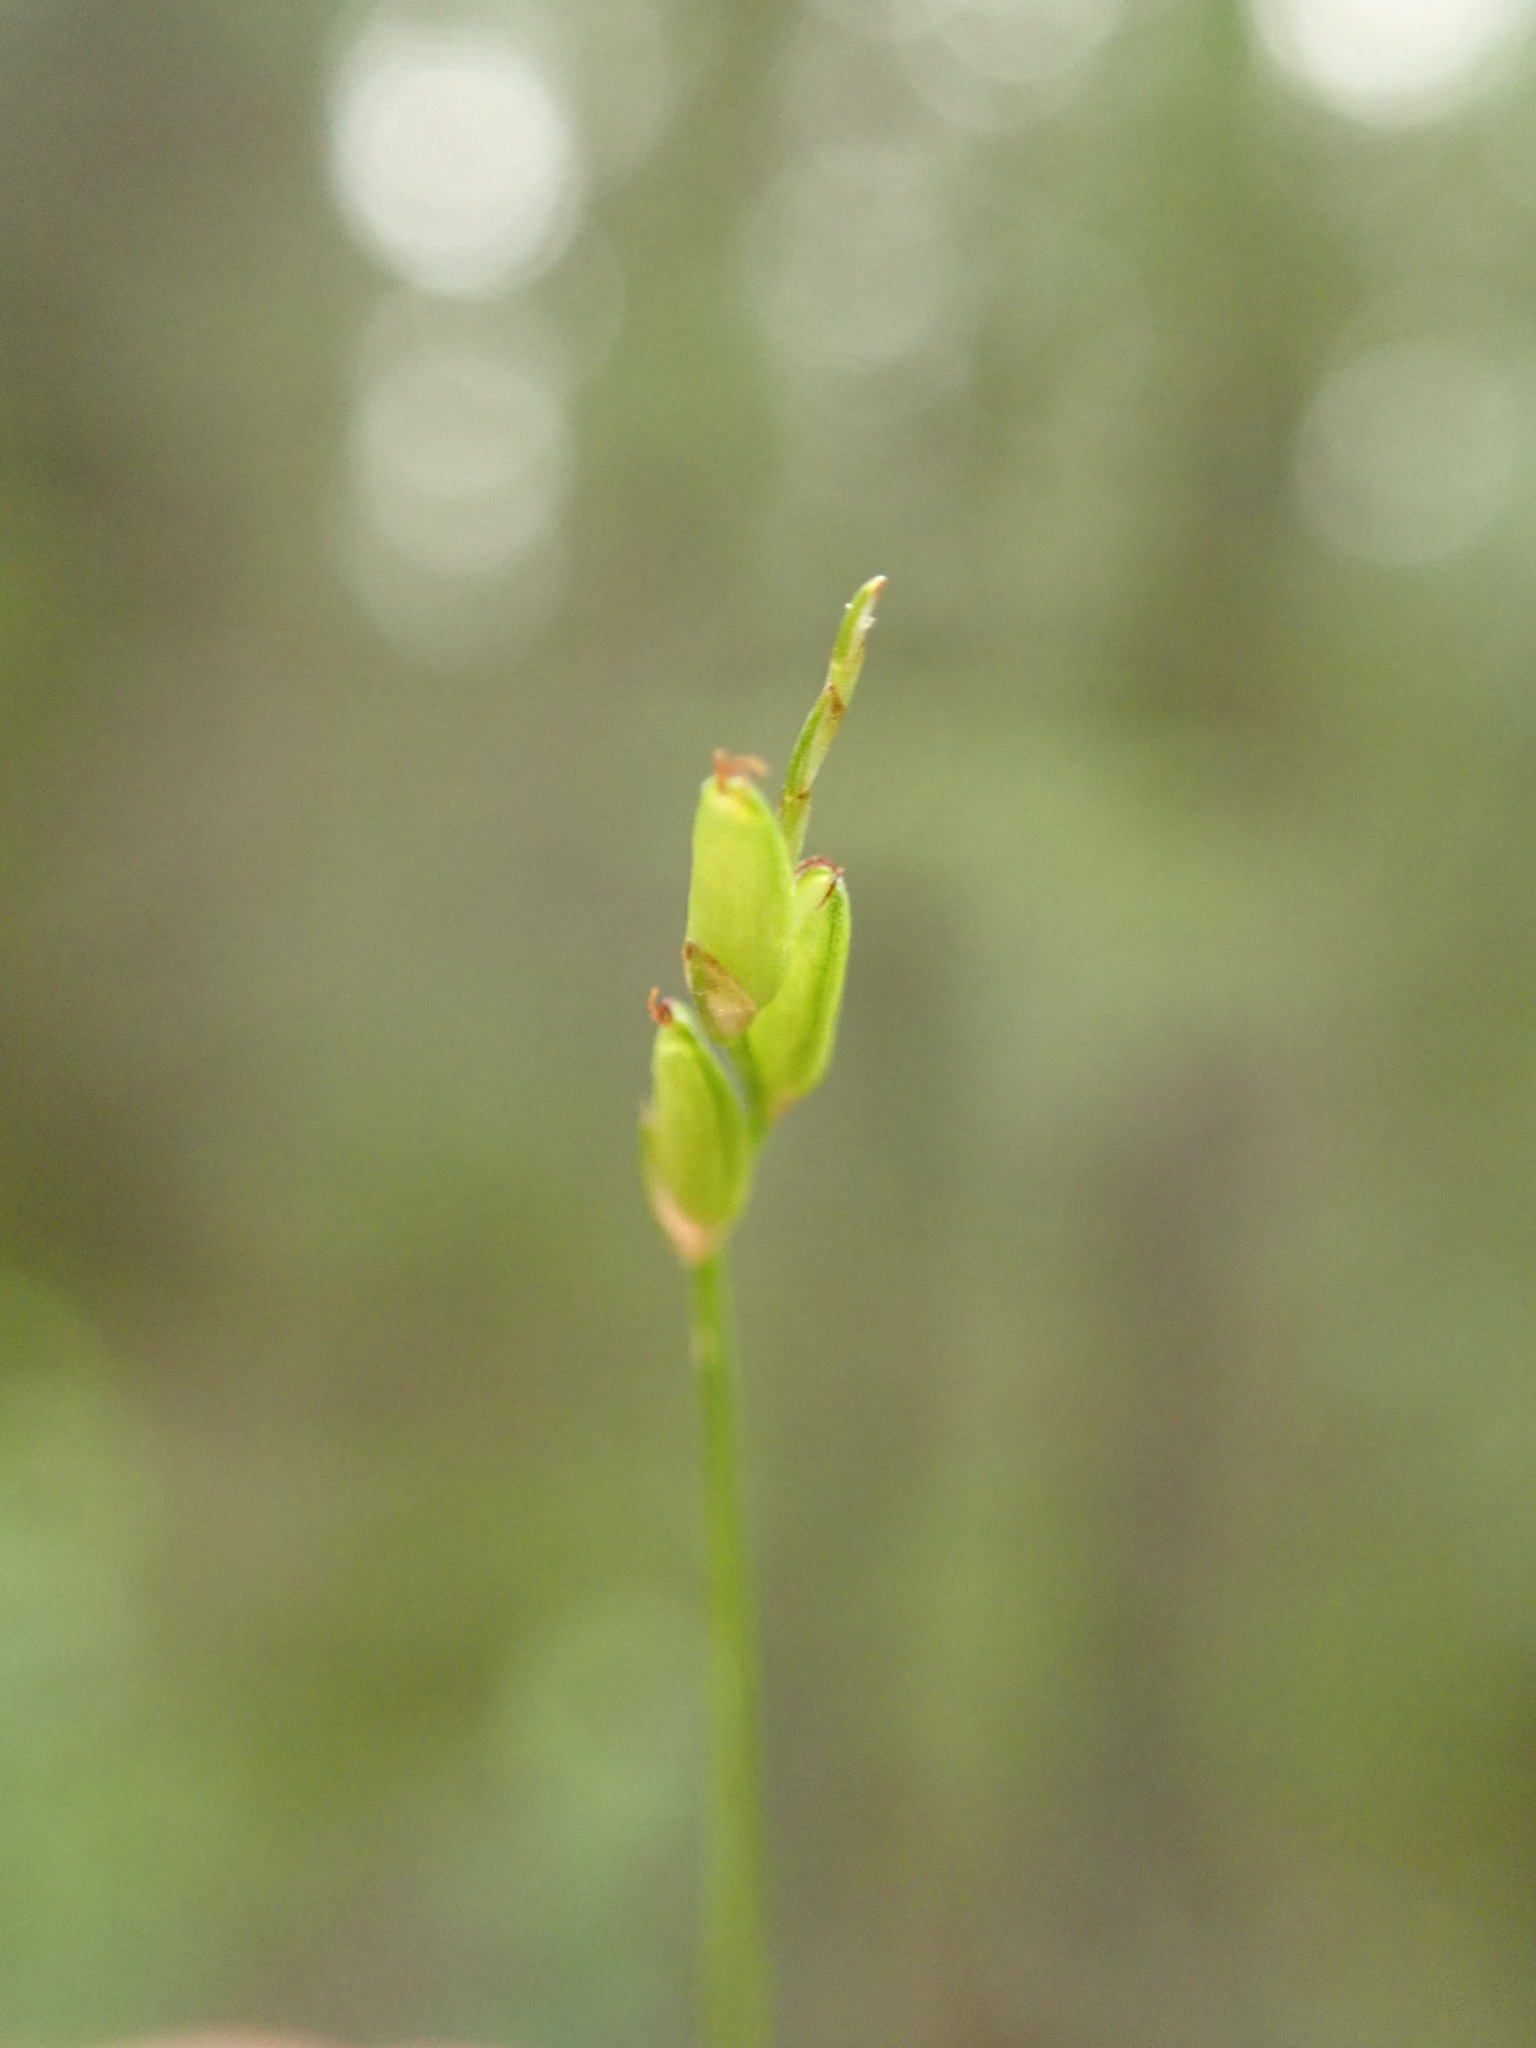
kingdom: Plantae
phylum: Tracheophyta
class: Liliopsida
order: Poales
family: Cyperaceae
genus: Carex
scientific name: Carex leptalea
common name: Bristly-stalked sedge
